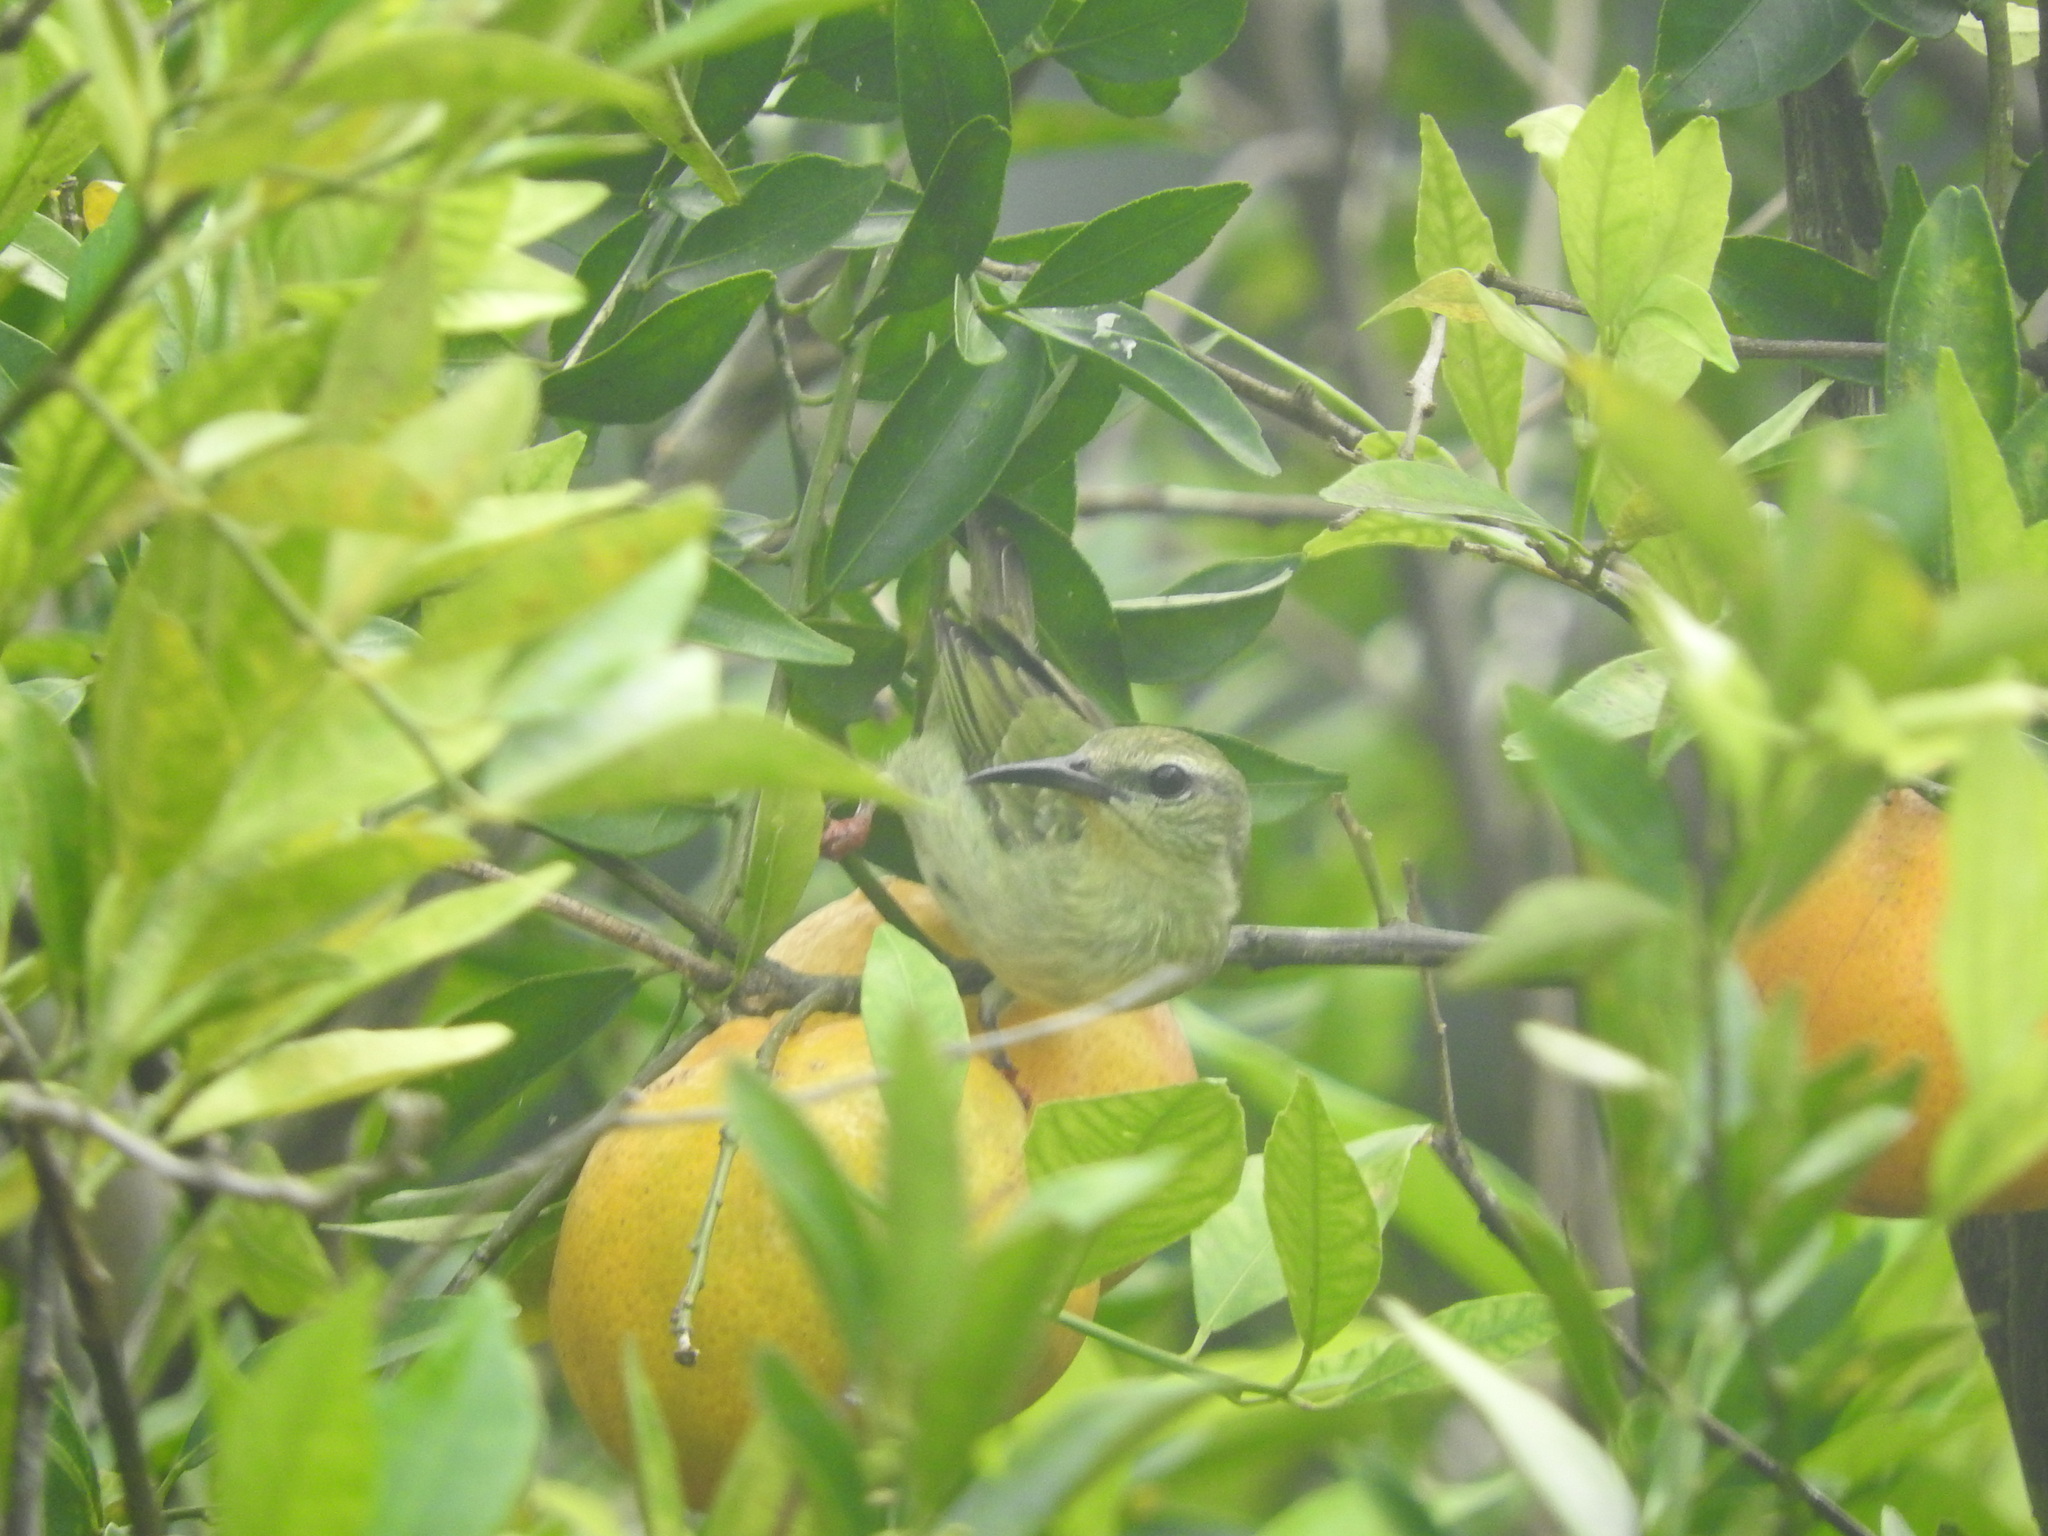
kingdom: Animalia
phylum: Chordata
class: Aves
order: Passeriformes
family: Thraupidae
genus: Cyanerpes
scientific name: Cyanerpes cyaneus
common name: Red-legged honeycreeper
